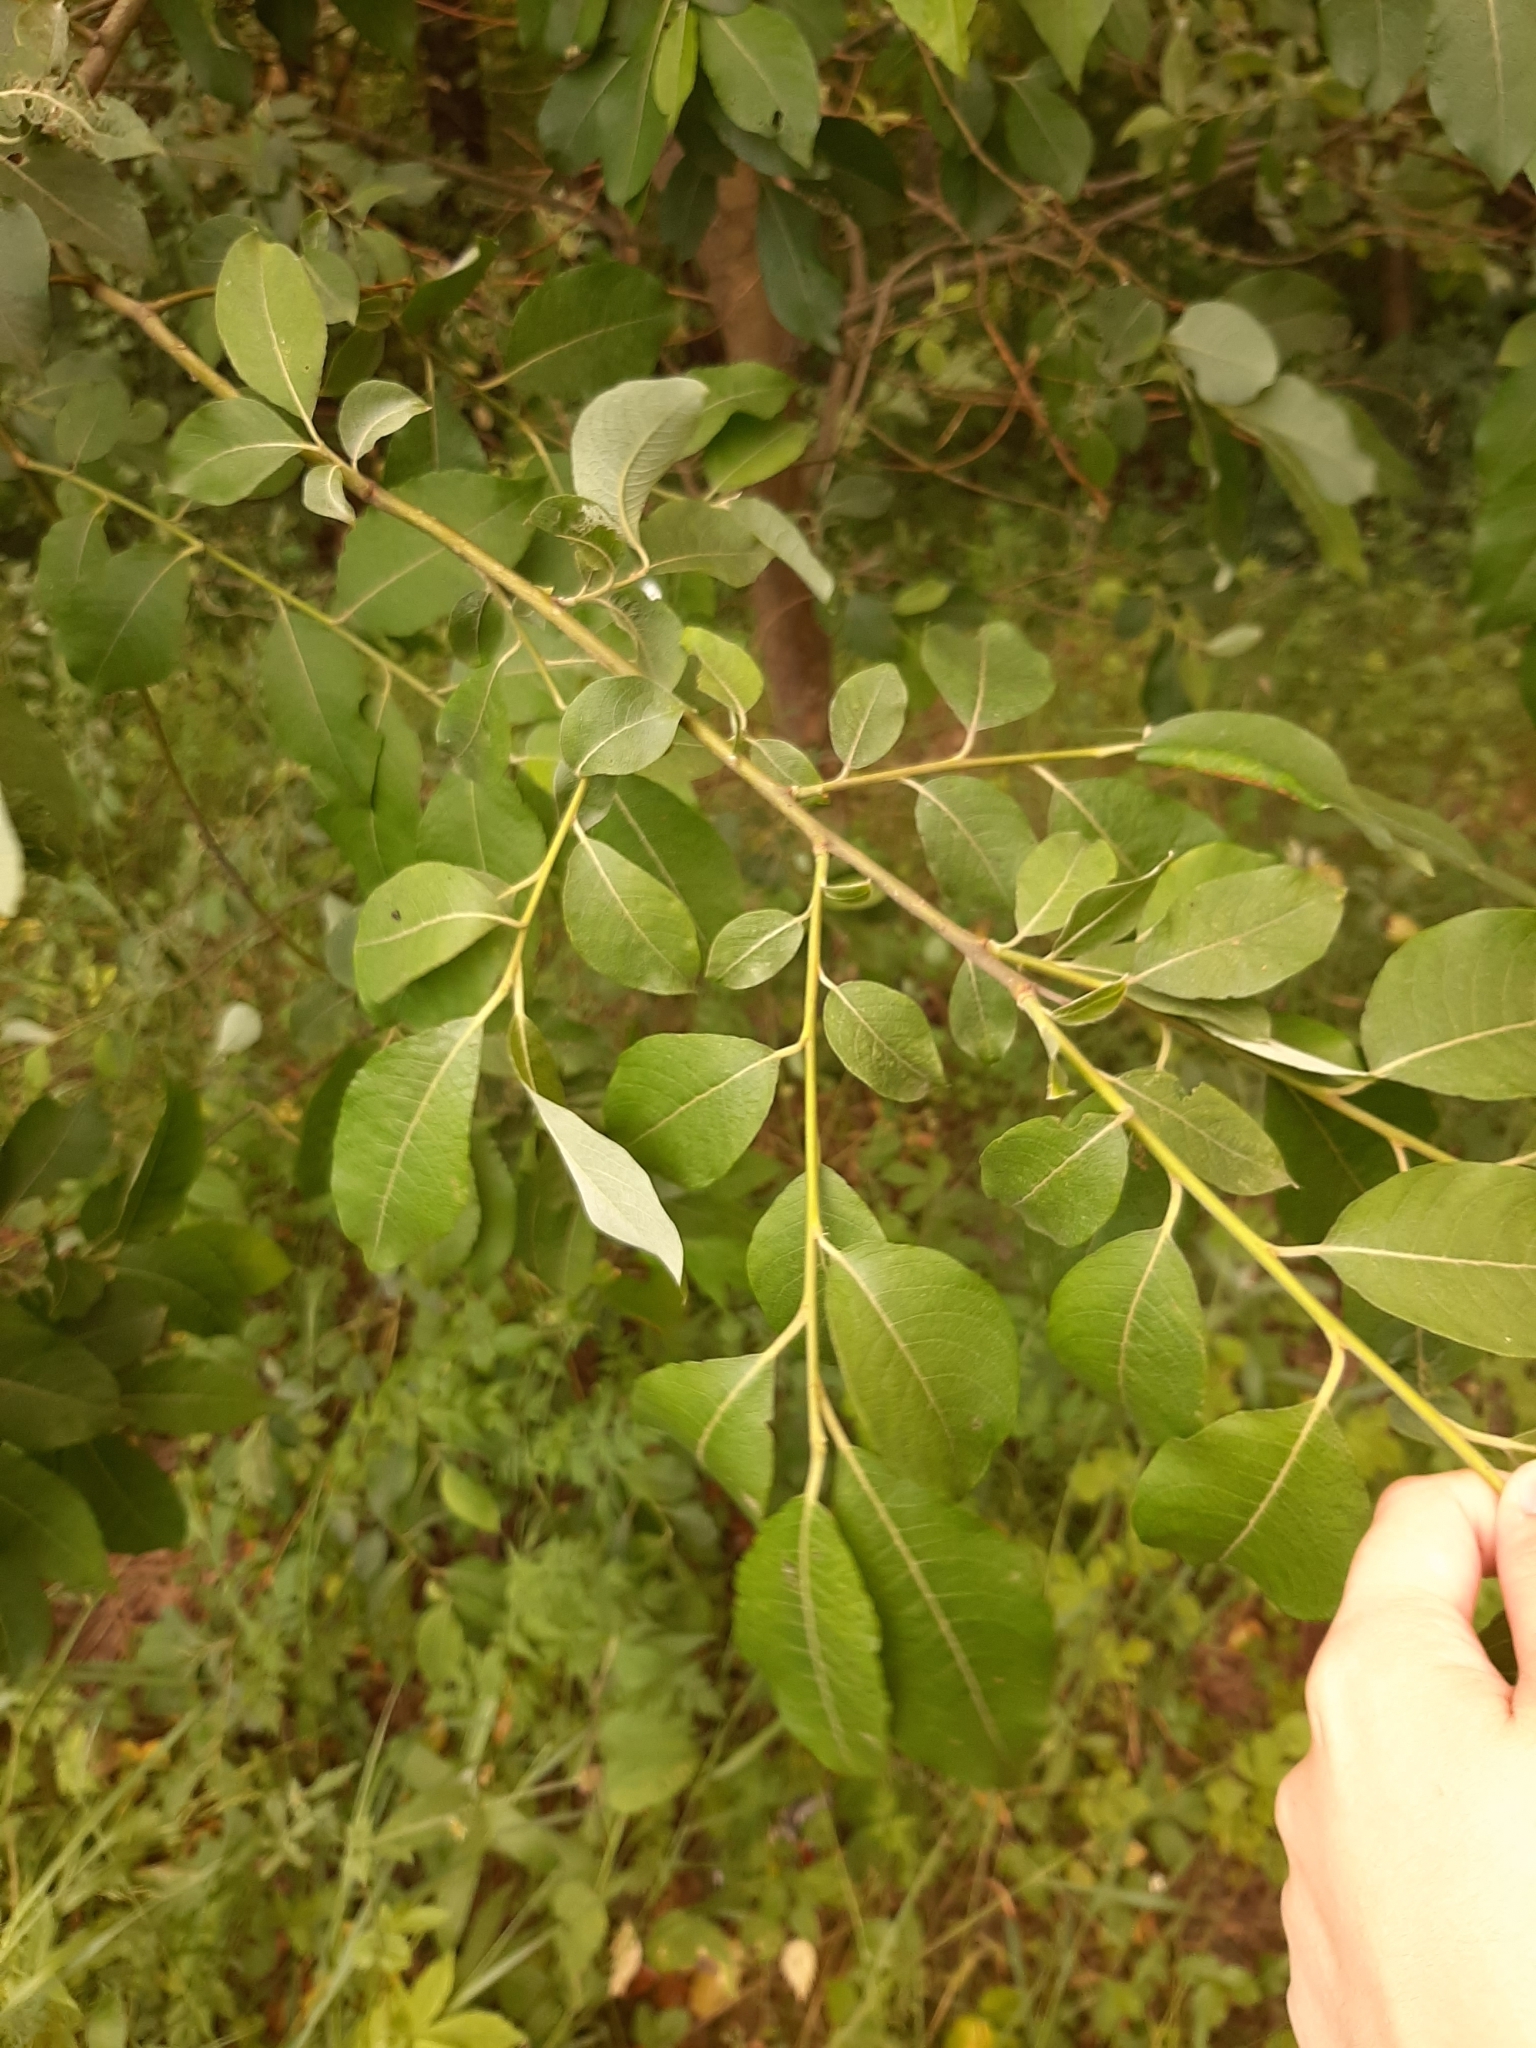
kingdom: Plantae
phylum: Tracheophyta
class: Magnoliopsida
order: Malpighiales
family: Salicaceae
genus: Salix
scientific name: Salix caprea
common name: Goat willow
